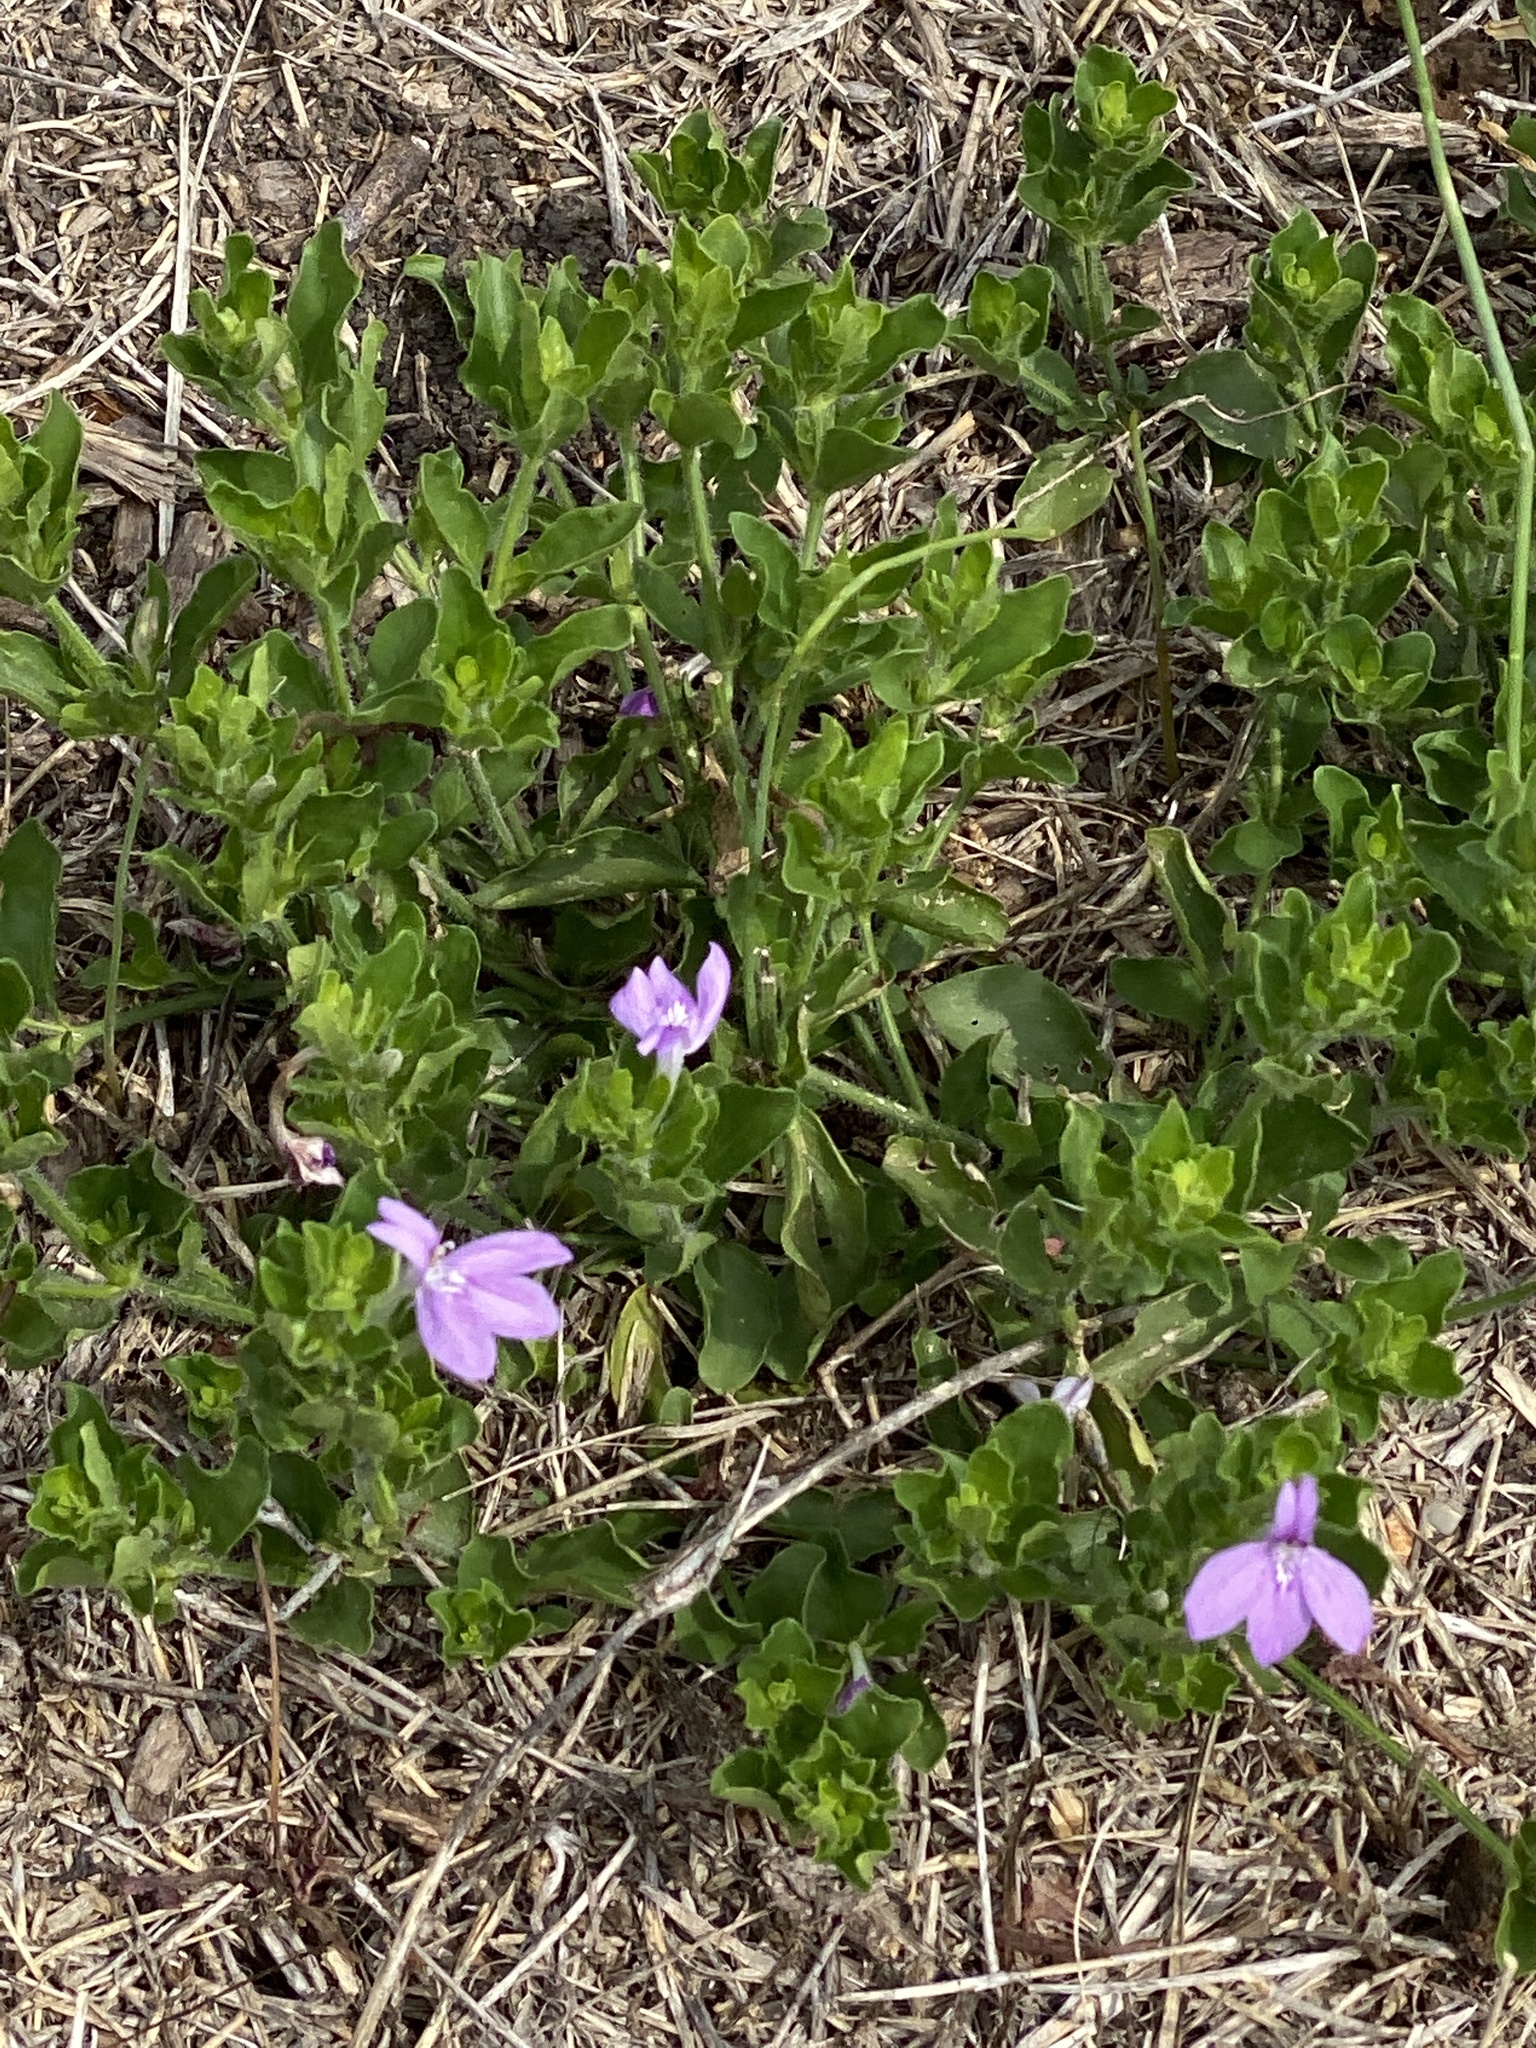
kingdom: Plantae
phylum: Tracheophyta
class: Magnoliopsida
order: Lamiales
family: Acanthaceae
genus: Justicia
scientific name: Justicia pilosella
